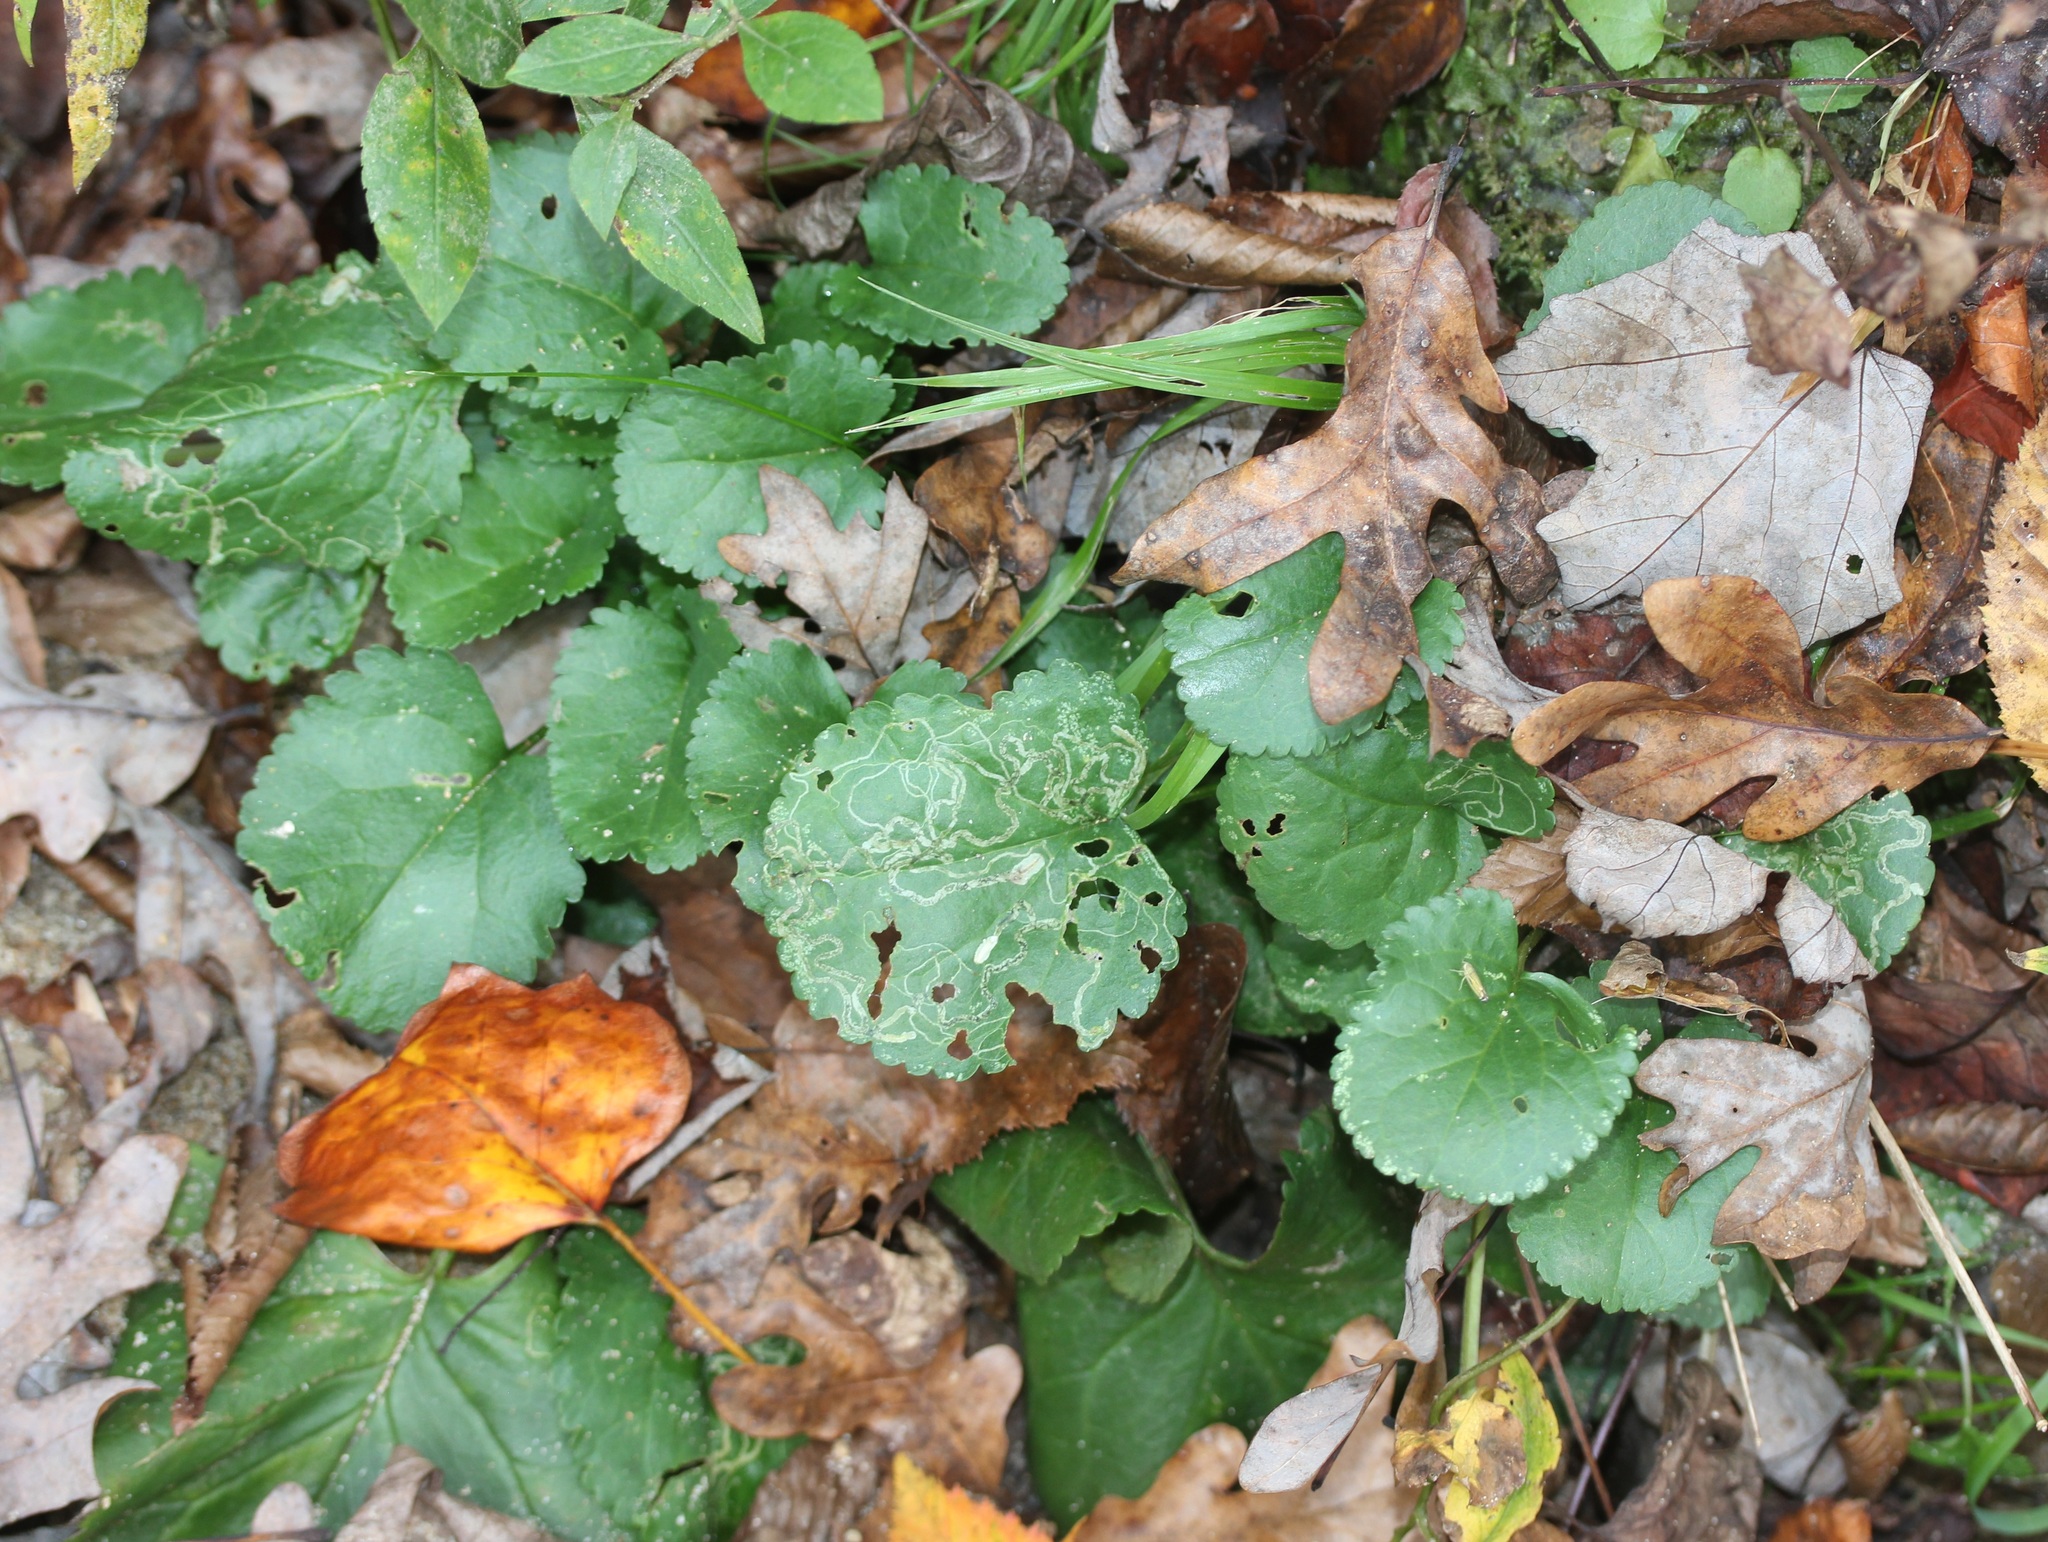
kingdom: Animalia
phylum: Arthropoda
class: Insecta
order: Lepidoptera
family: Gracillariidae
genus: Phyllocnistis
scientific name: Phyllocnistis insignis
